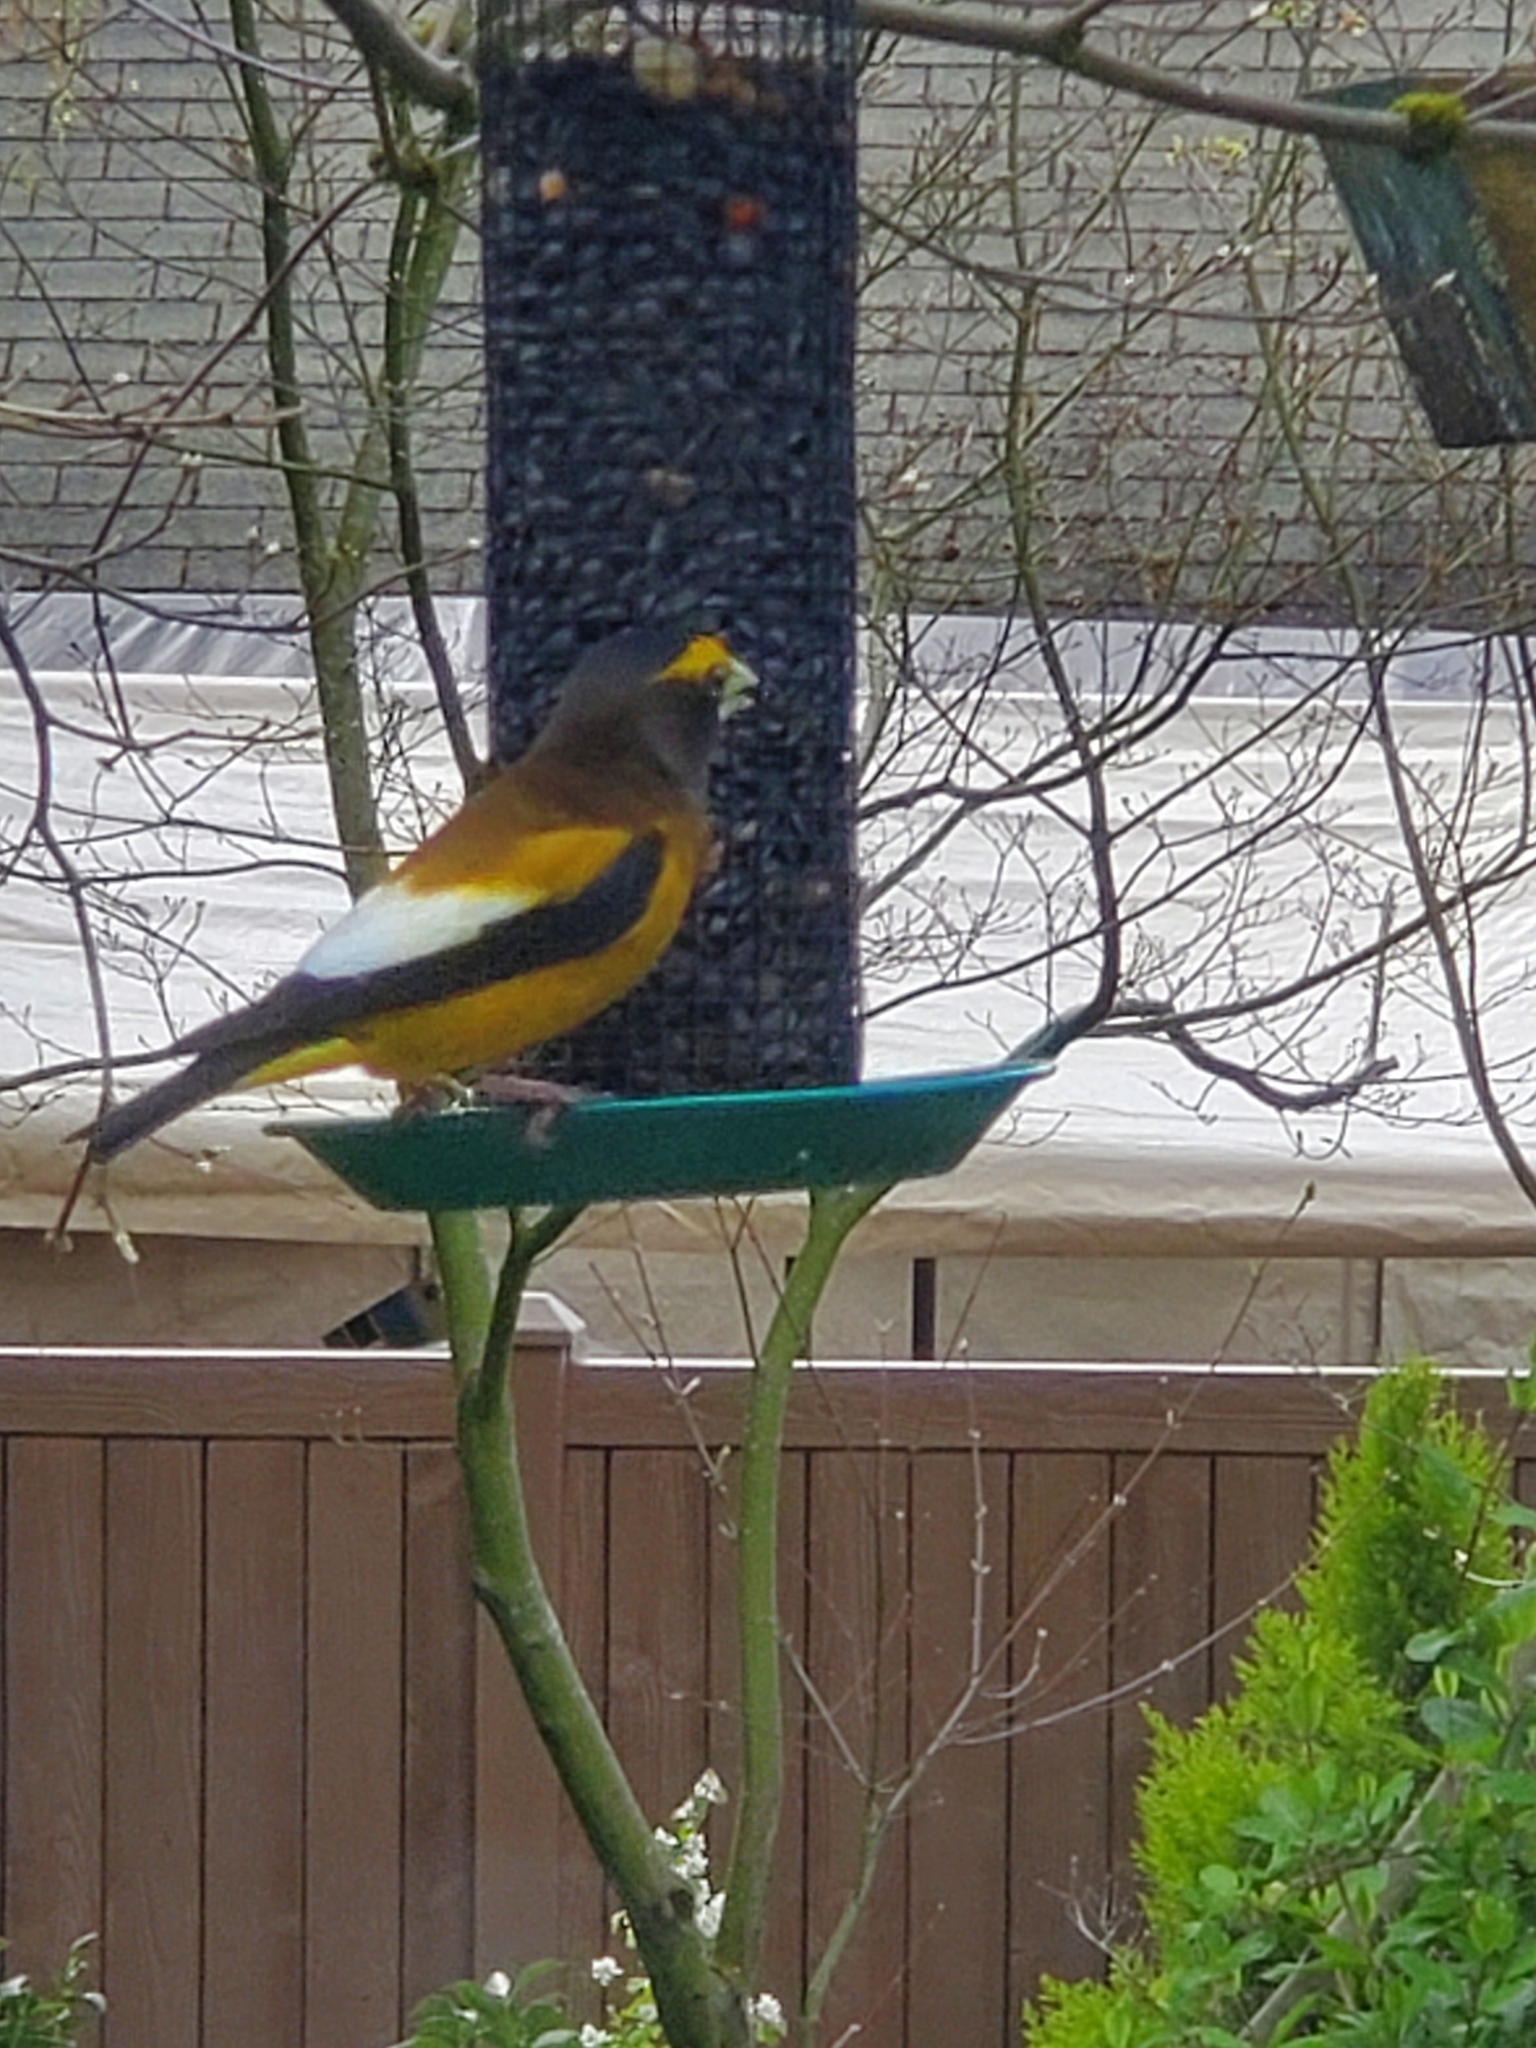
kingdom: Animalia
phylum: Chordata
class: Aves
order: Passeriformes
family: Fringillidae
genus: Hesperiphona
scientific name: Hesperiphona vespertina
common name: Evening grosbeak
